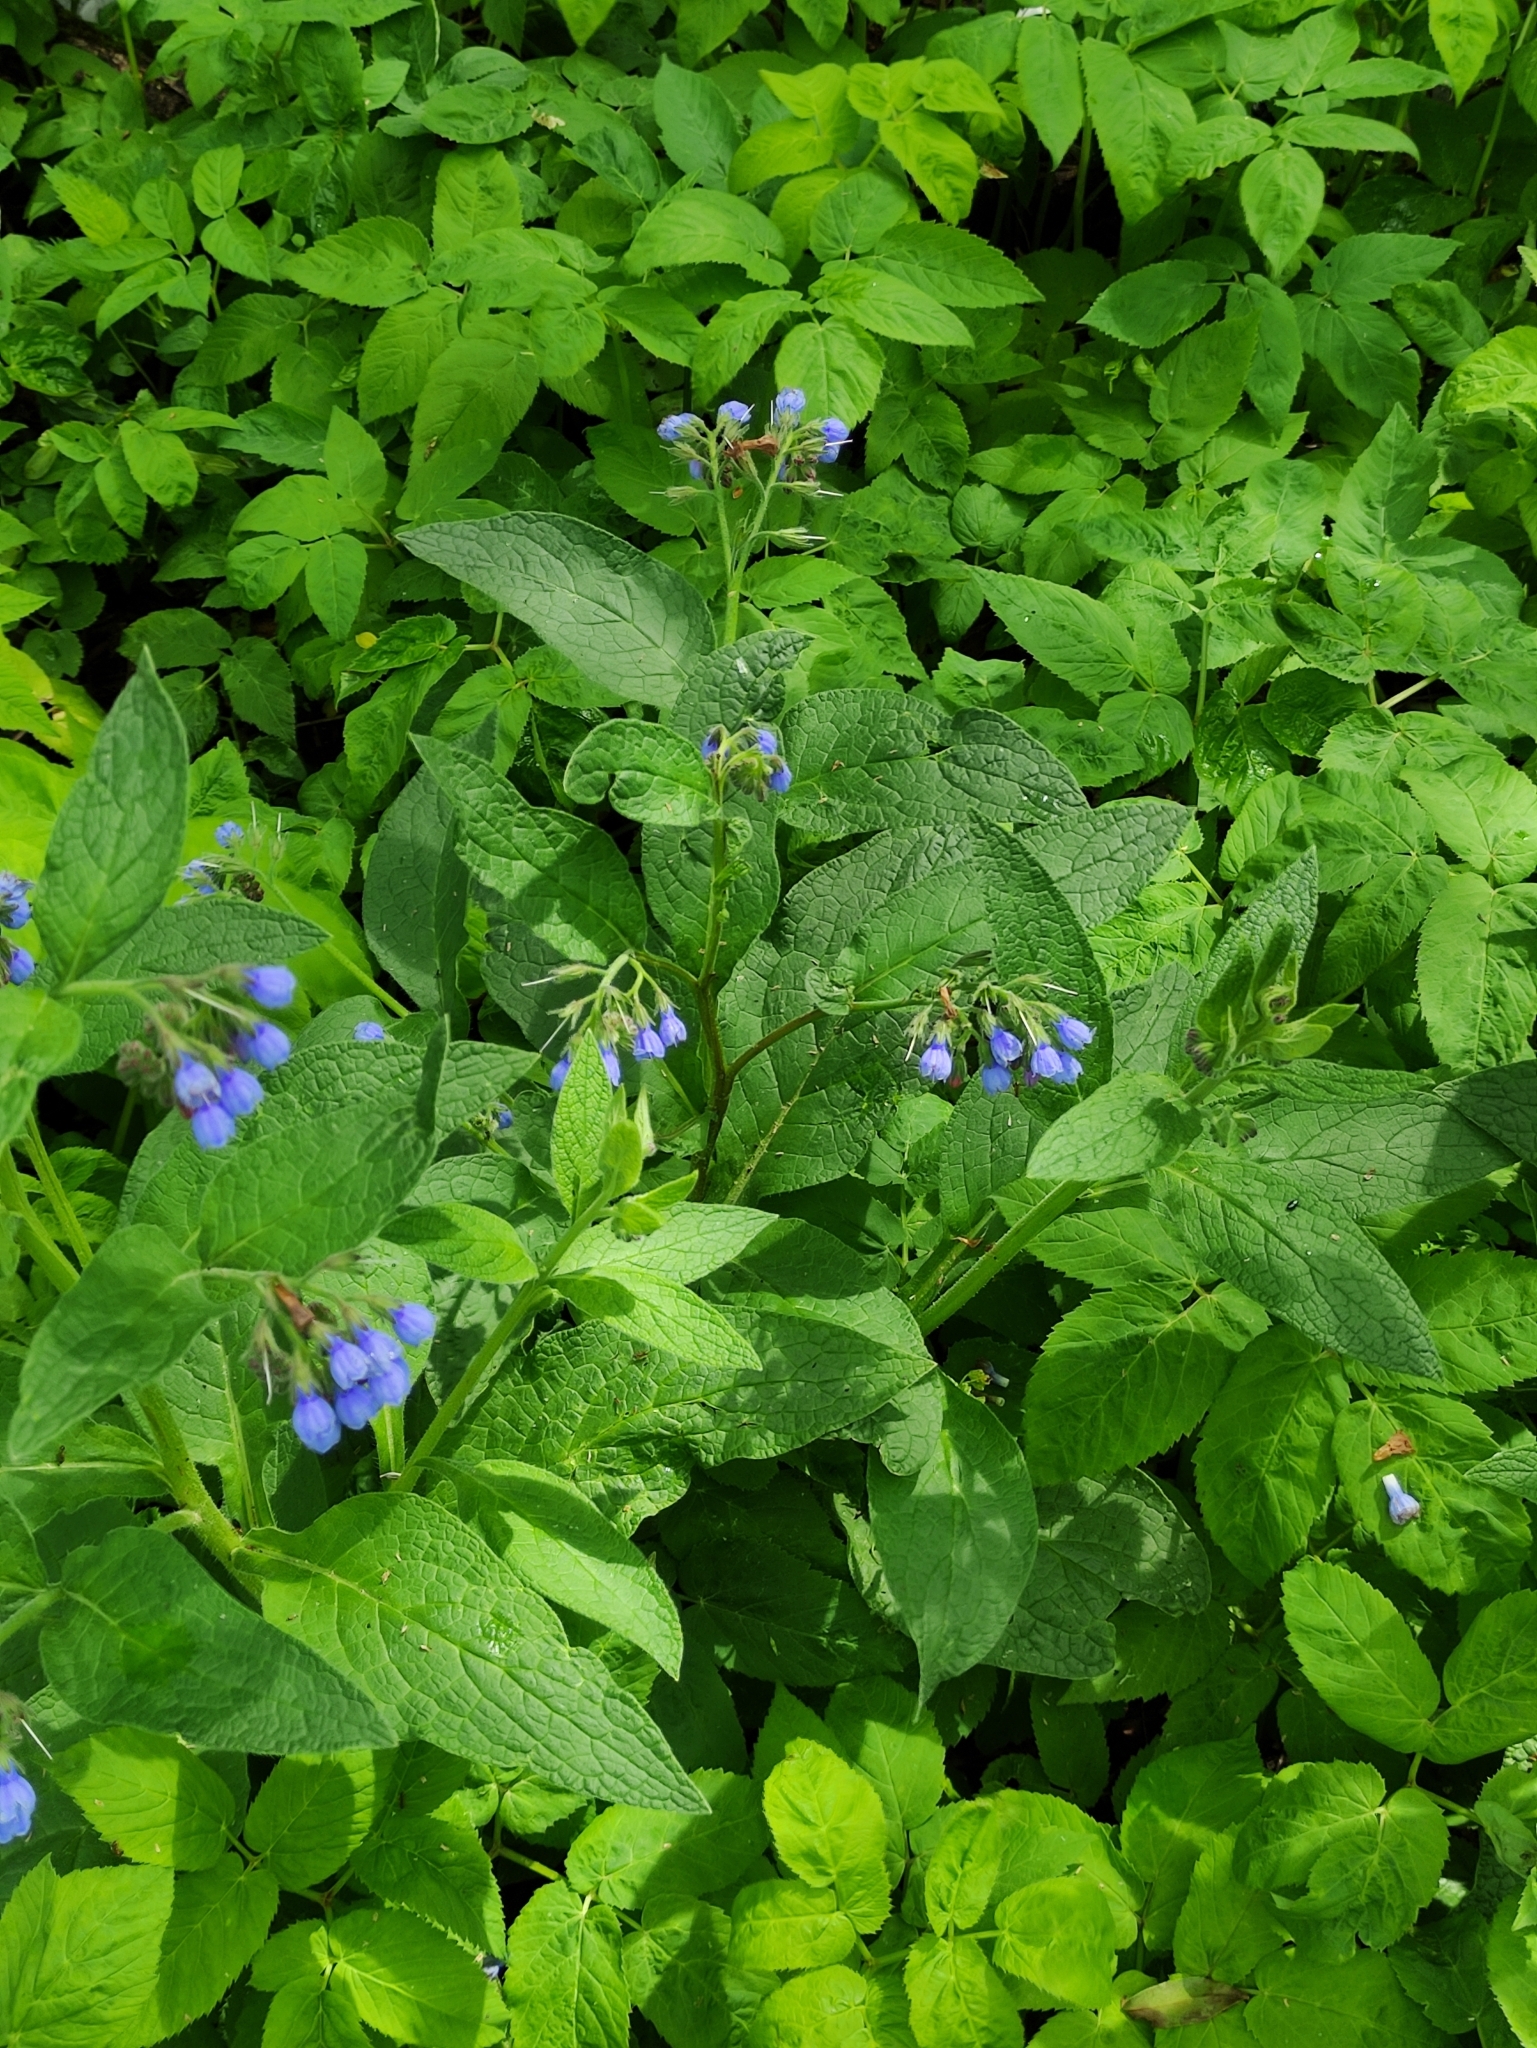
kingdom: Plantae
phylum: Tracheophyta
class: Magnoliopsida
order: Boraginales
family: Boraginaceae
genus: Symphytum
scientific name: Symphytum caucasicum
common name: Caucasian comfrey
